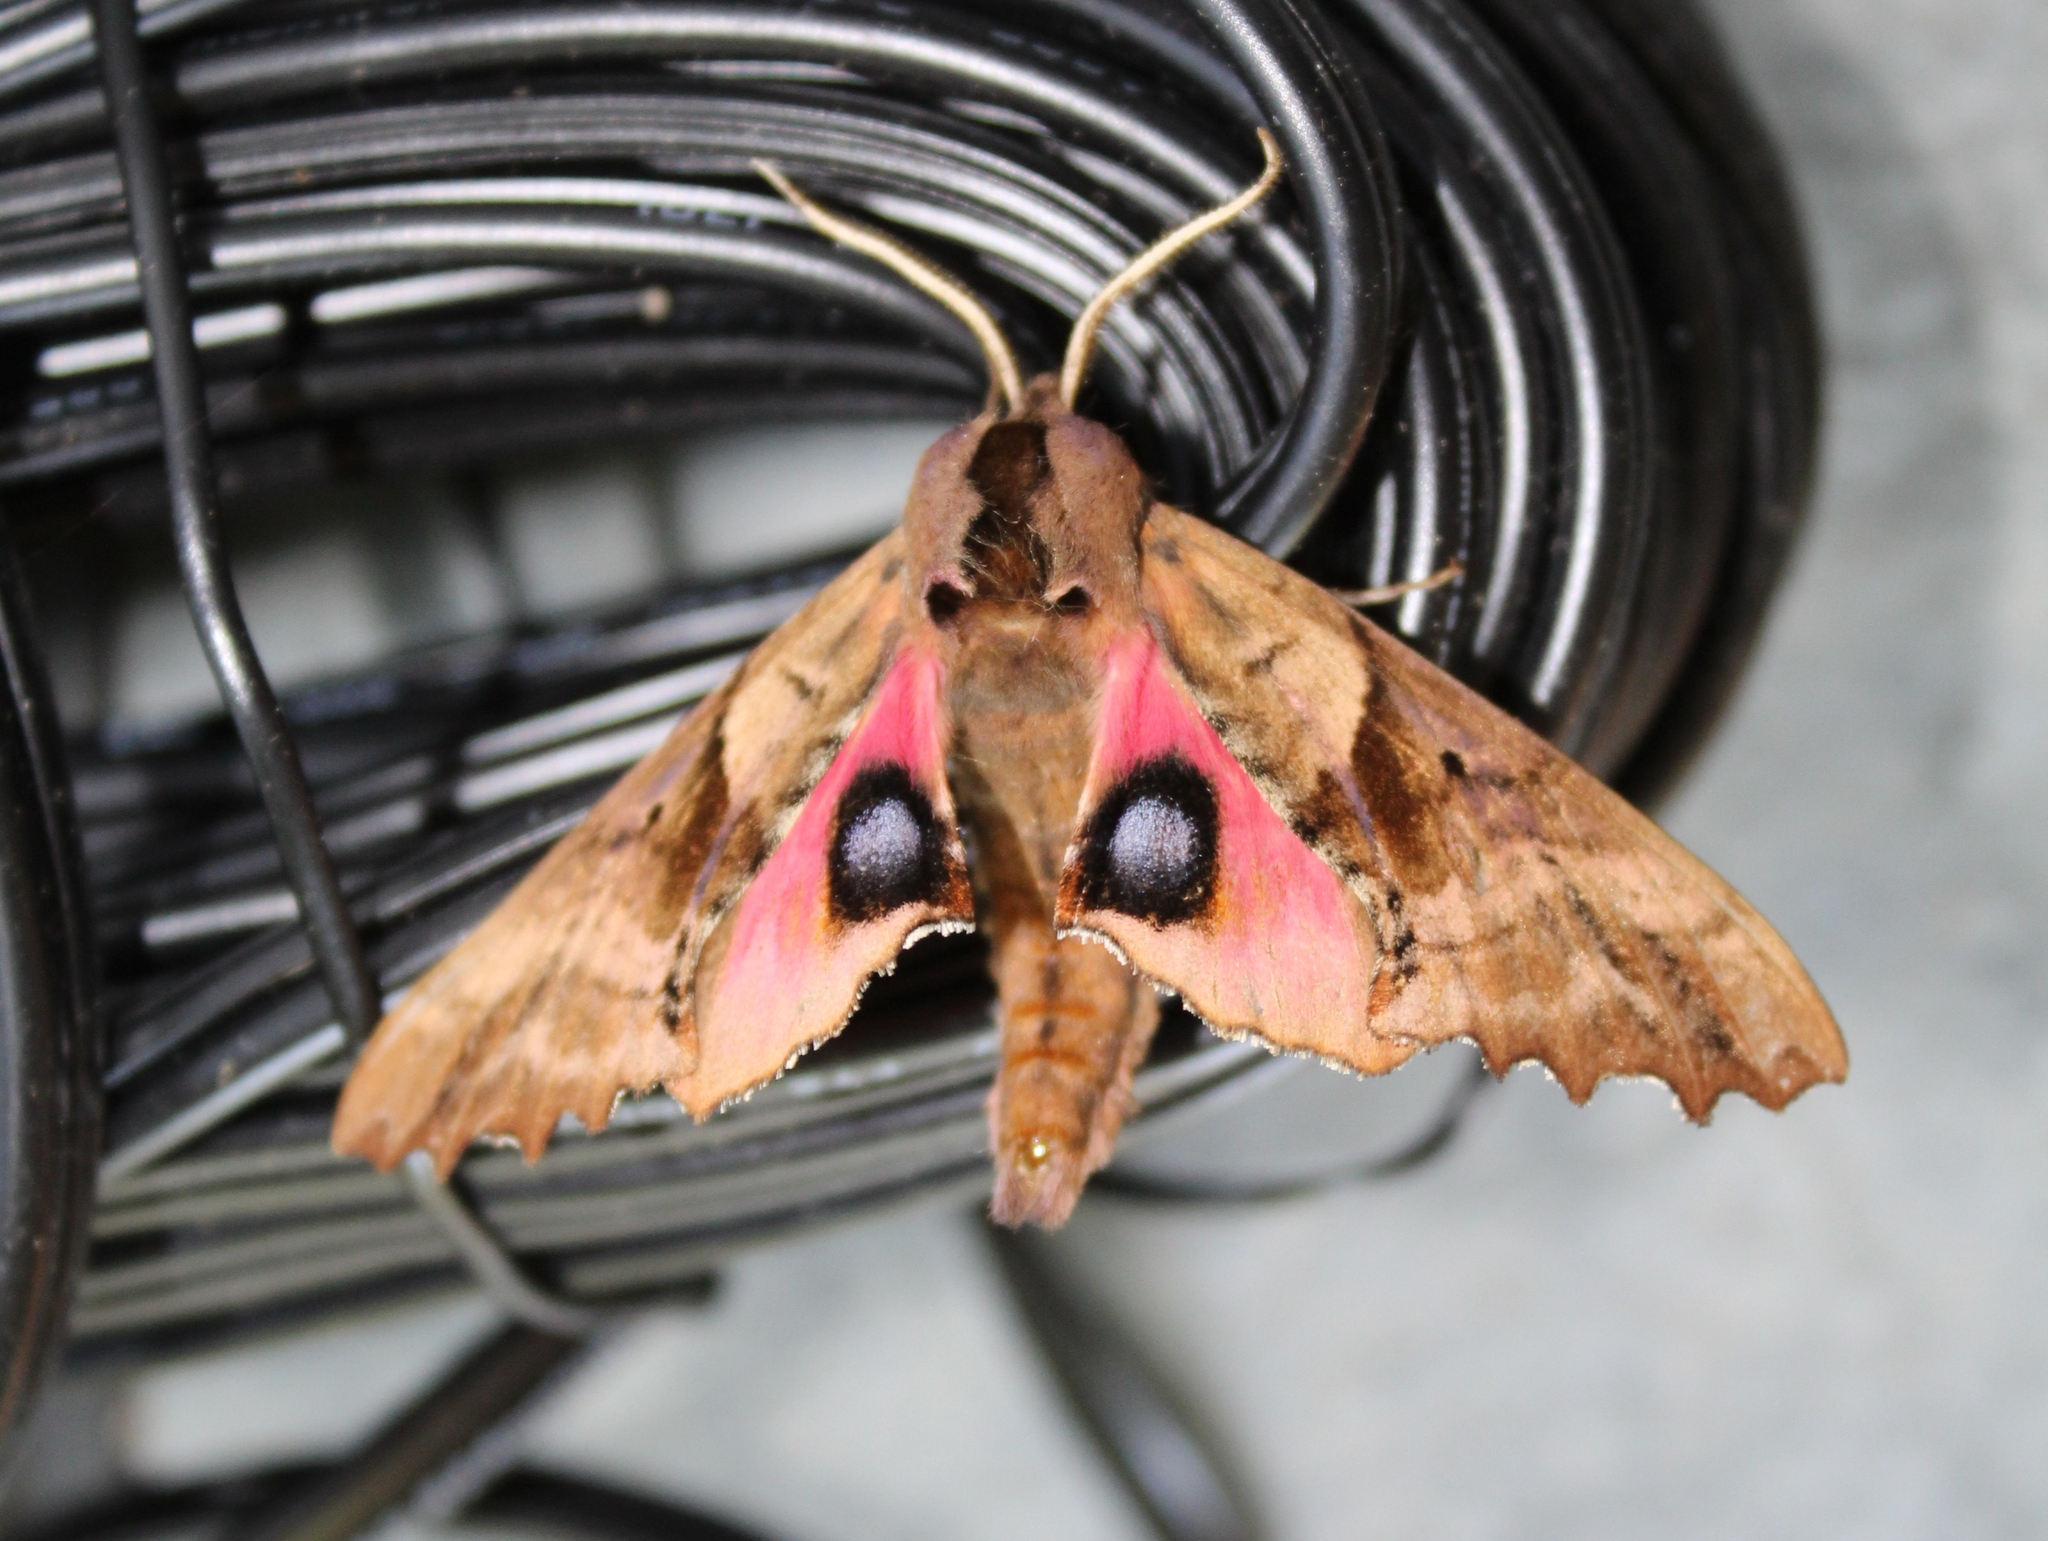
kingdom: Animalia
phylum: Arthropoda
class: Insecta
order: Lepidoptera
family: Sphingidae
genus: Paonias
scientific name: Paonias excaecata
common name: Blind-eyed sphinx
